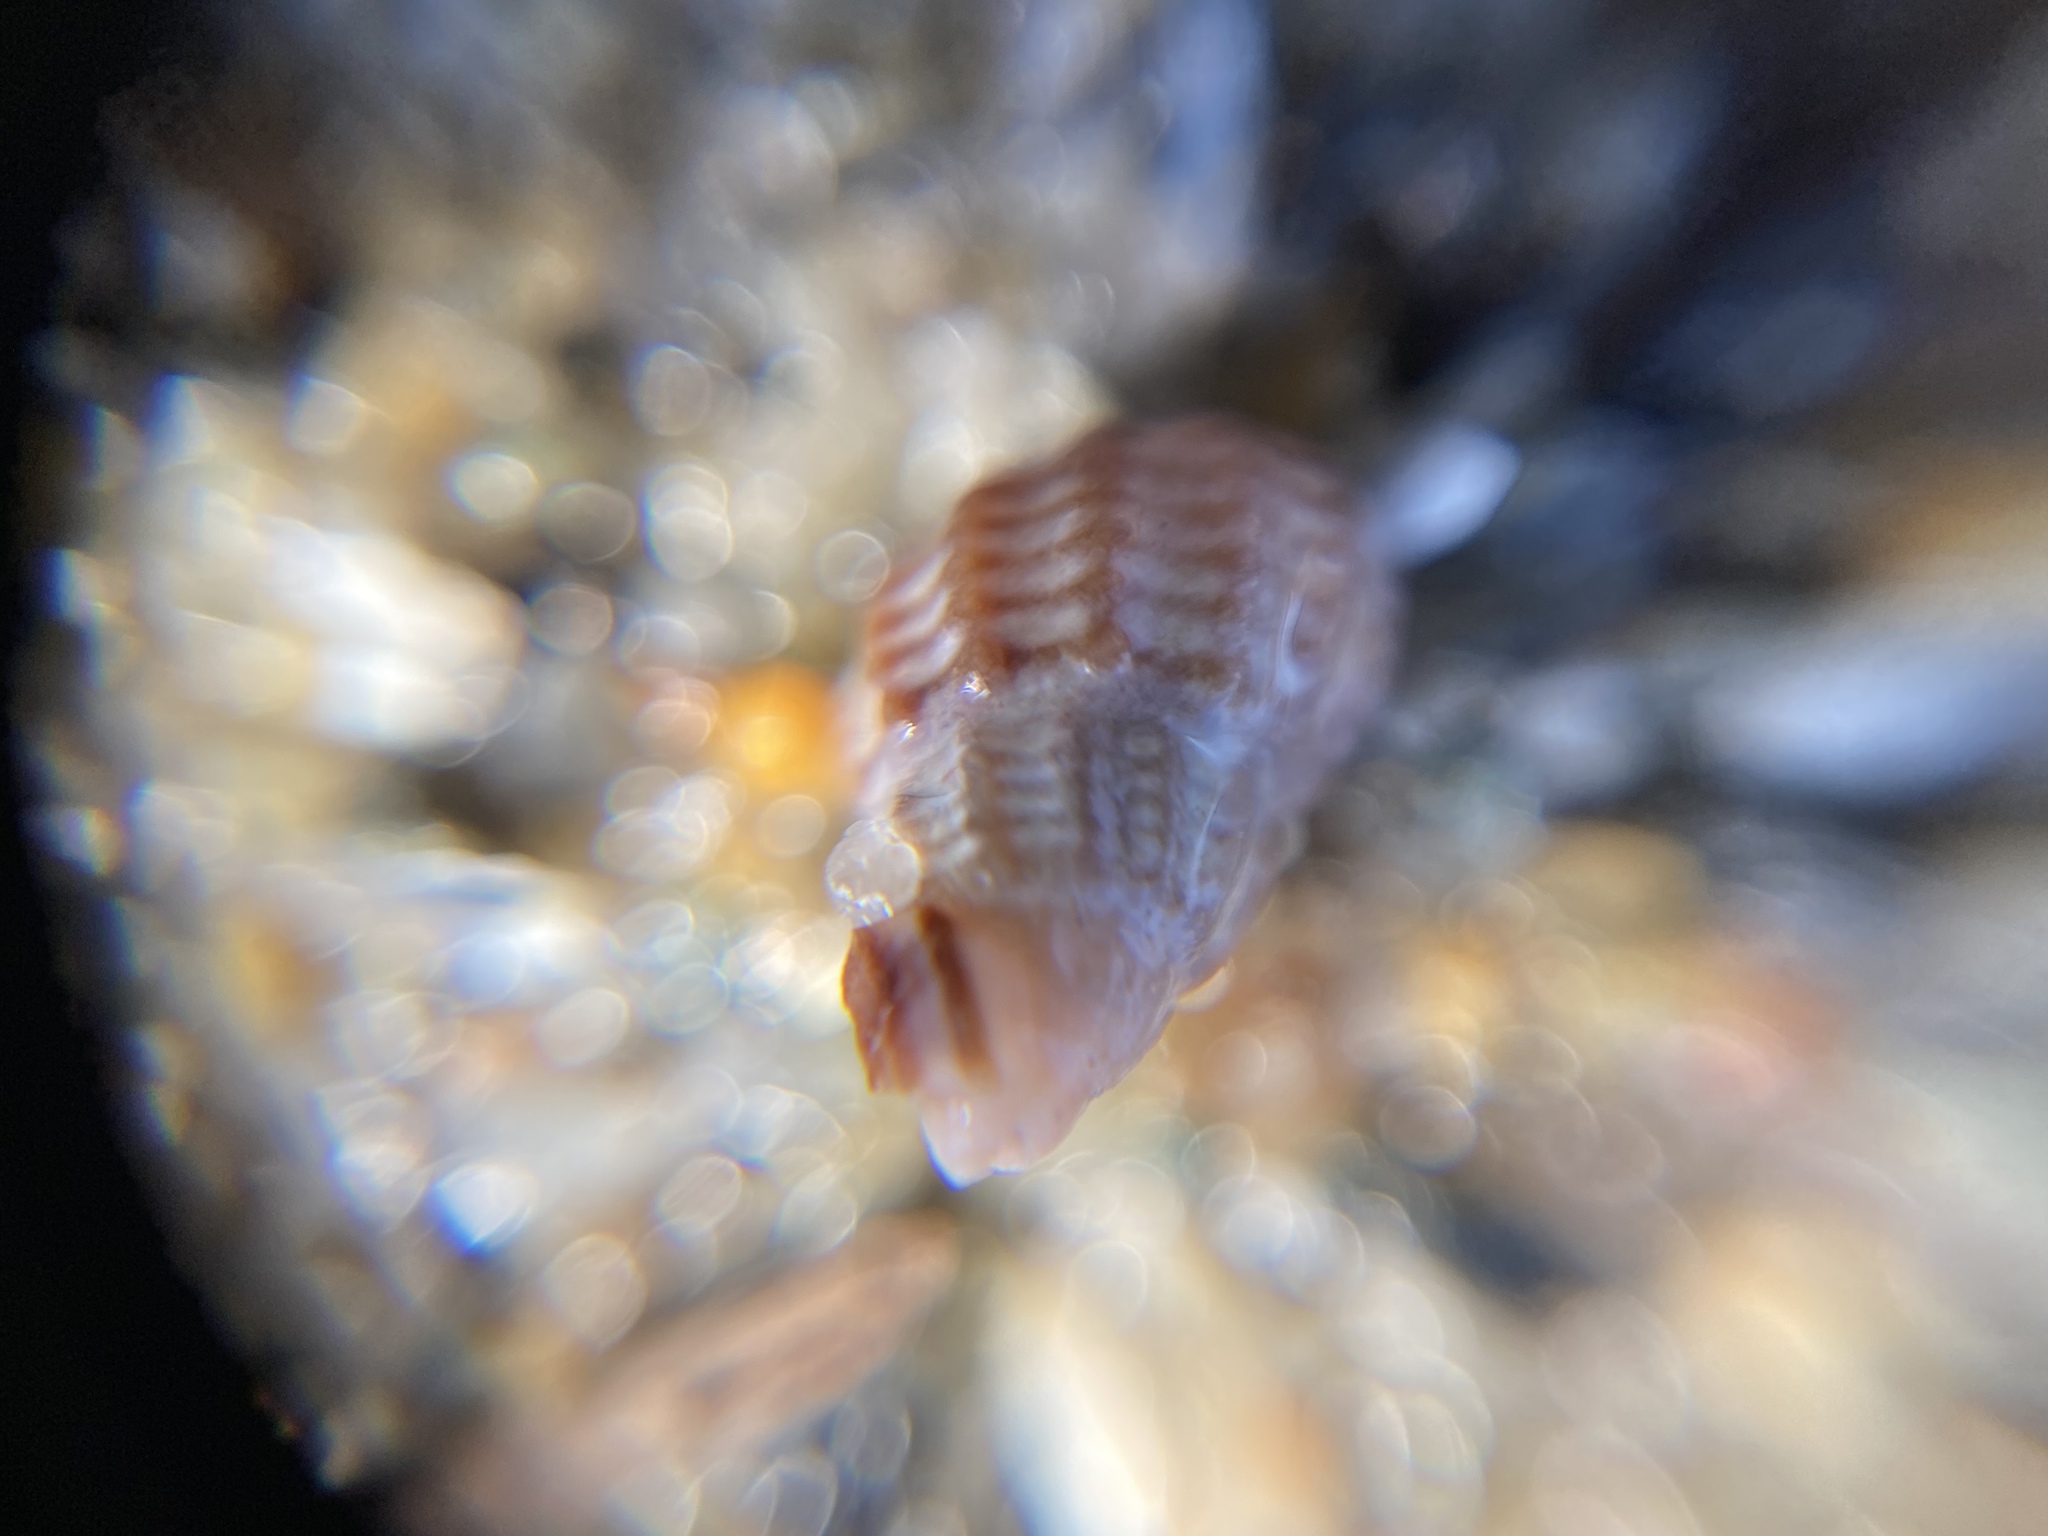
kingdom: Animalia
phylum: Mollusca
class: Gastropoda
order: Neogastropoda
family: Nassariidae
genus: Ilyanassa
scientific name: Ilyanassa trivittata
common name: Three-line mudsnail
